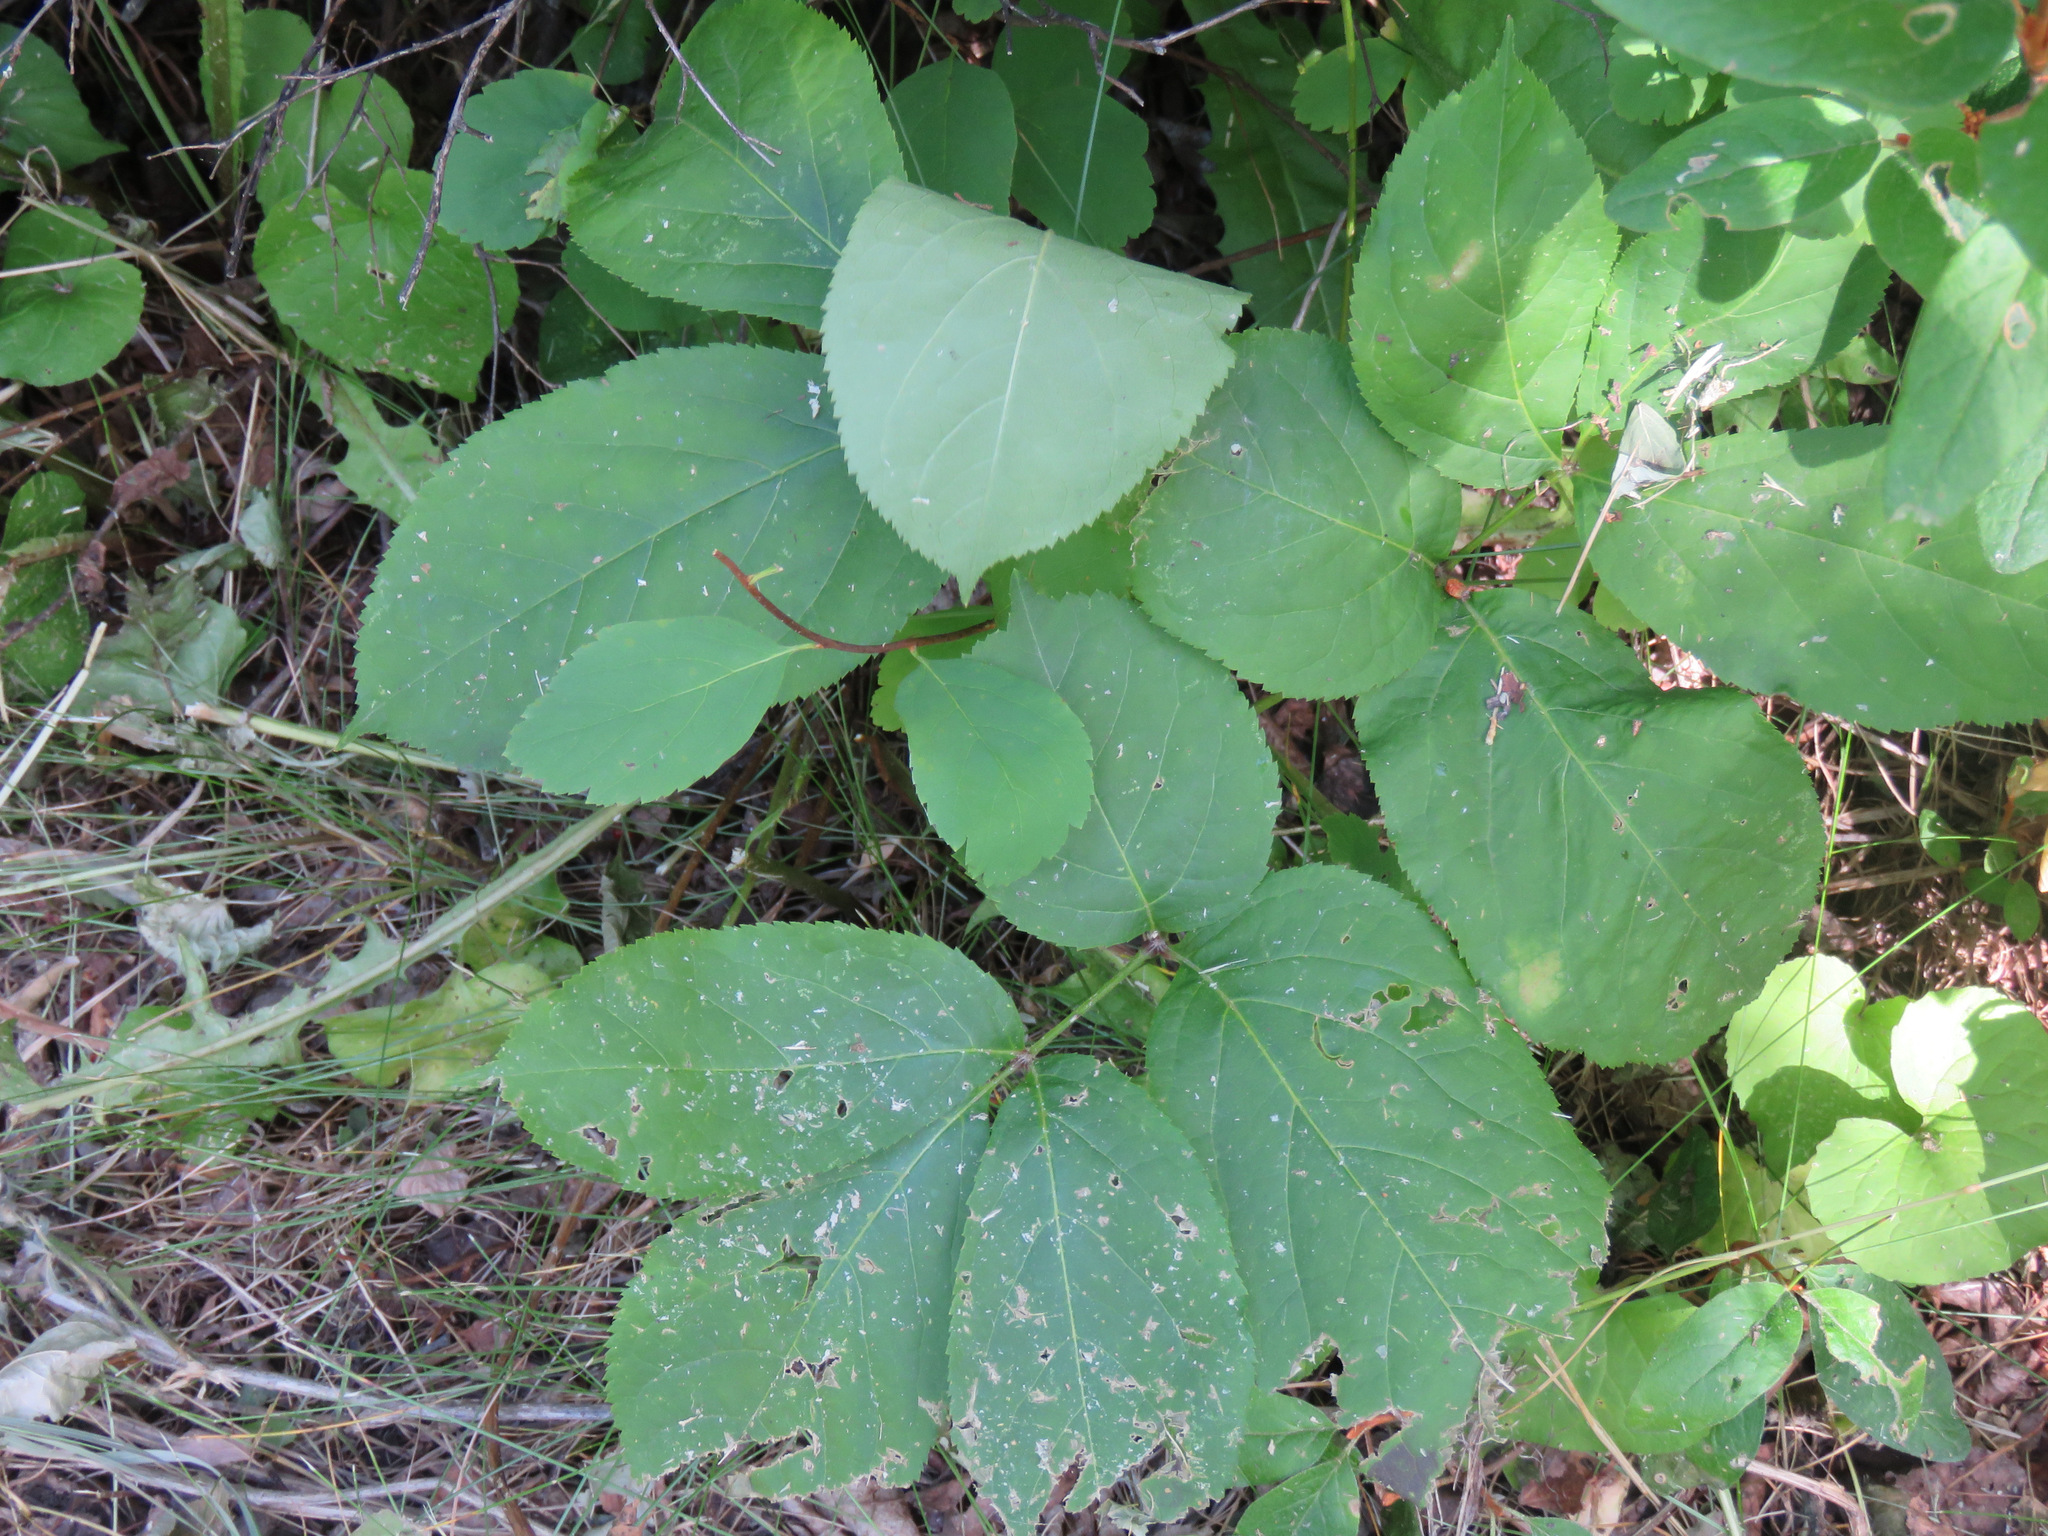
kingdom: Plantae
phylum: Tracheophyta
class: Magnoliopsida
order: Apiales
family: Araliaceae
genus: Aralia
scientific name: Aralia nudicaulis
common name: Wild sarsaparilla
